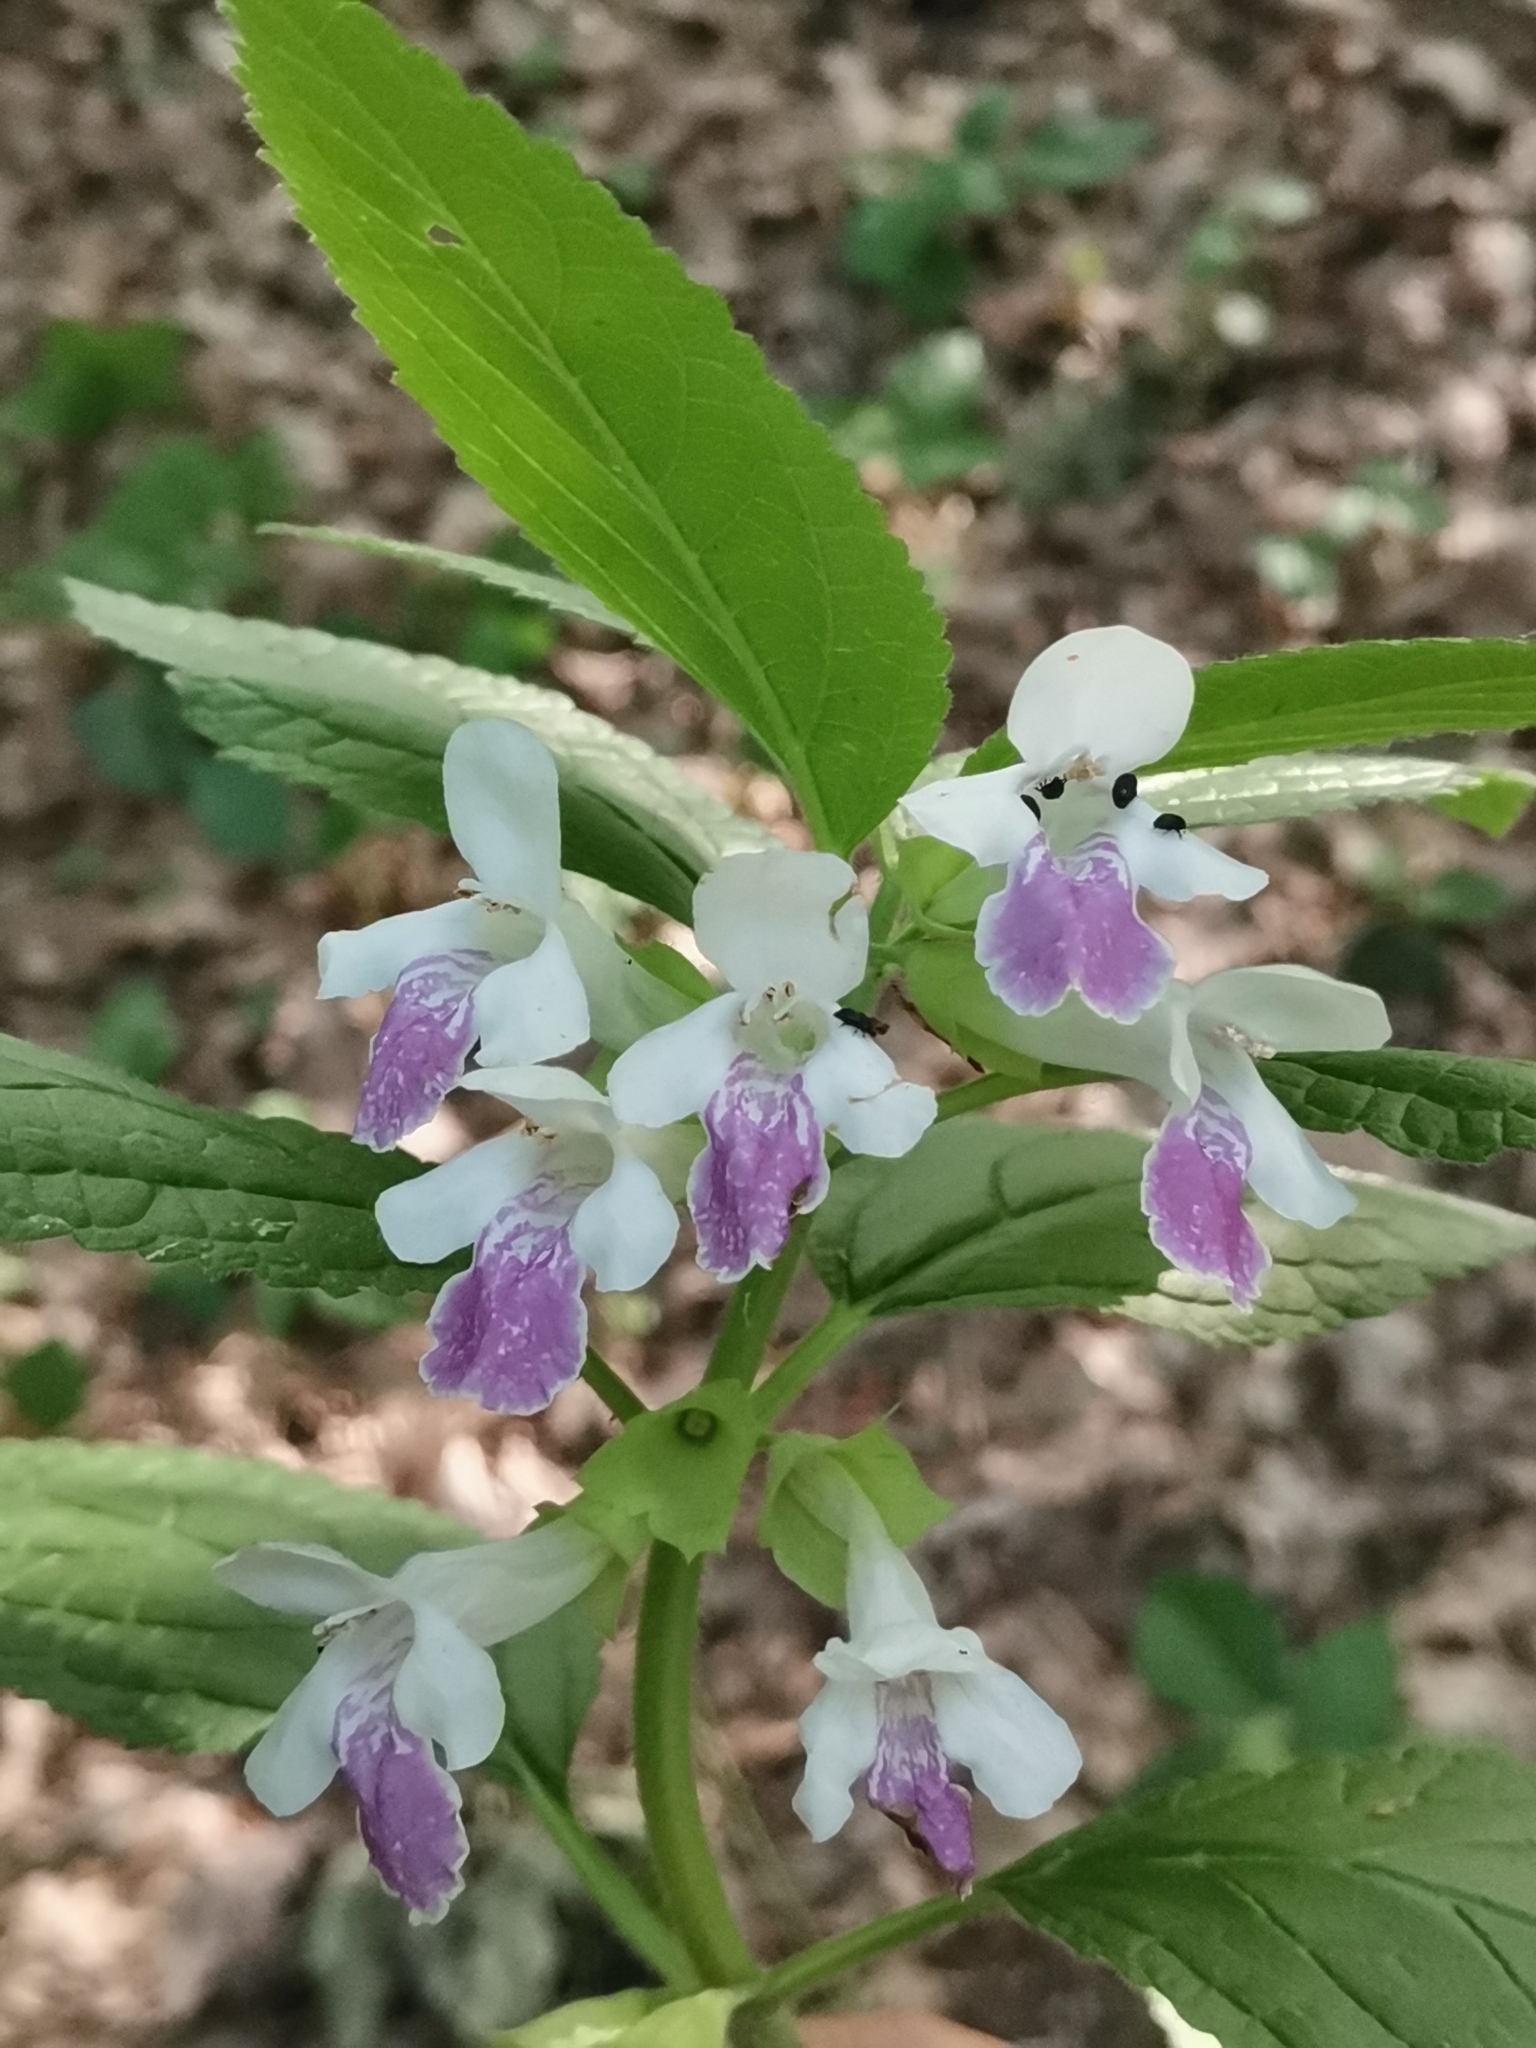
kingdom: Plantae
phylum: Tracheophyta
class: Magnoliopsida
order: Lamiales
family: Lamiaceae
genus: Melittis
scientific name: Melittis melissophyllum
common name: Bastard balm
